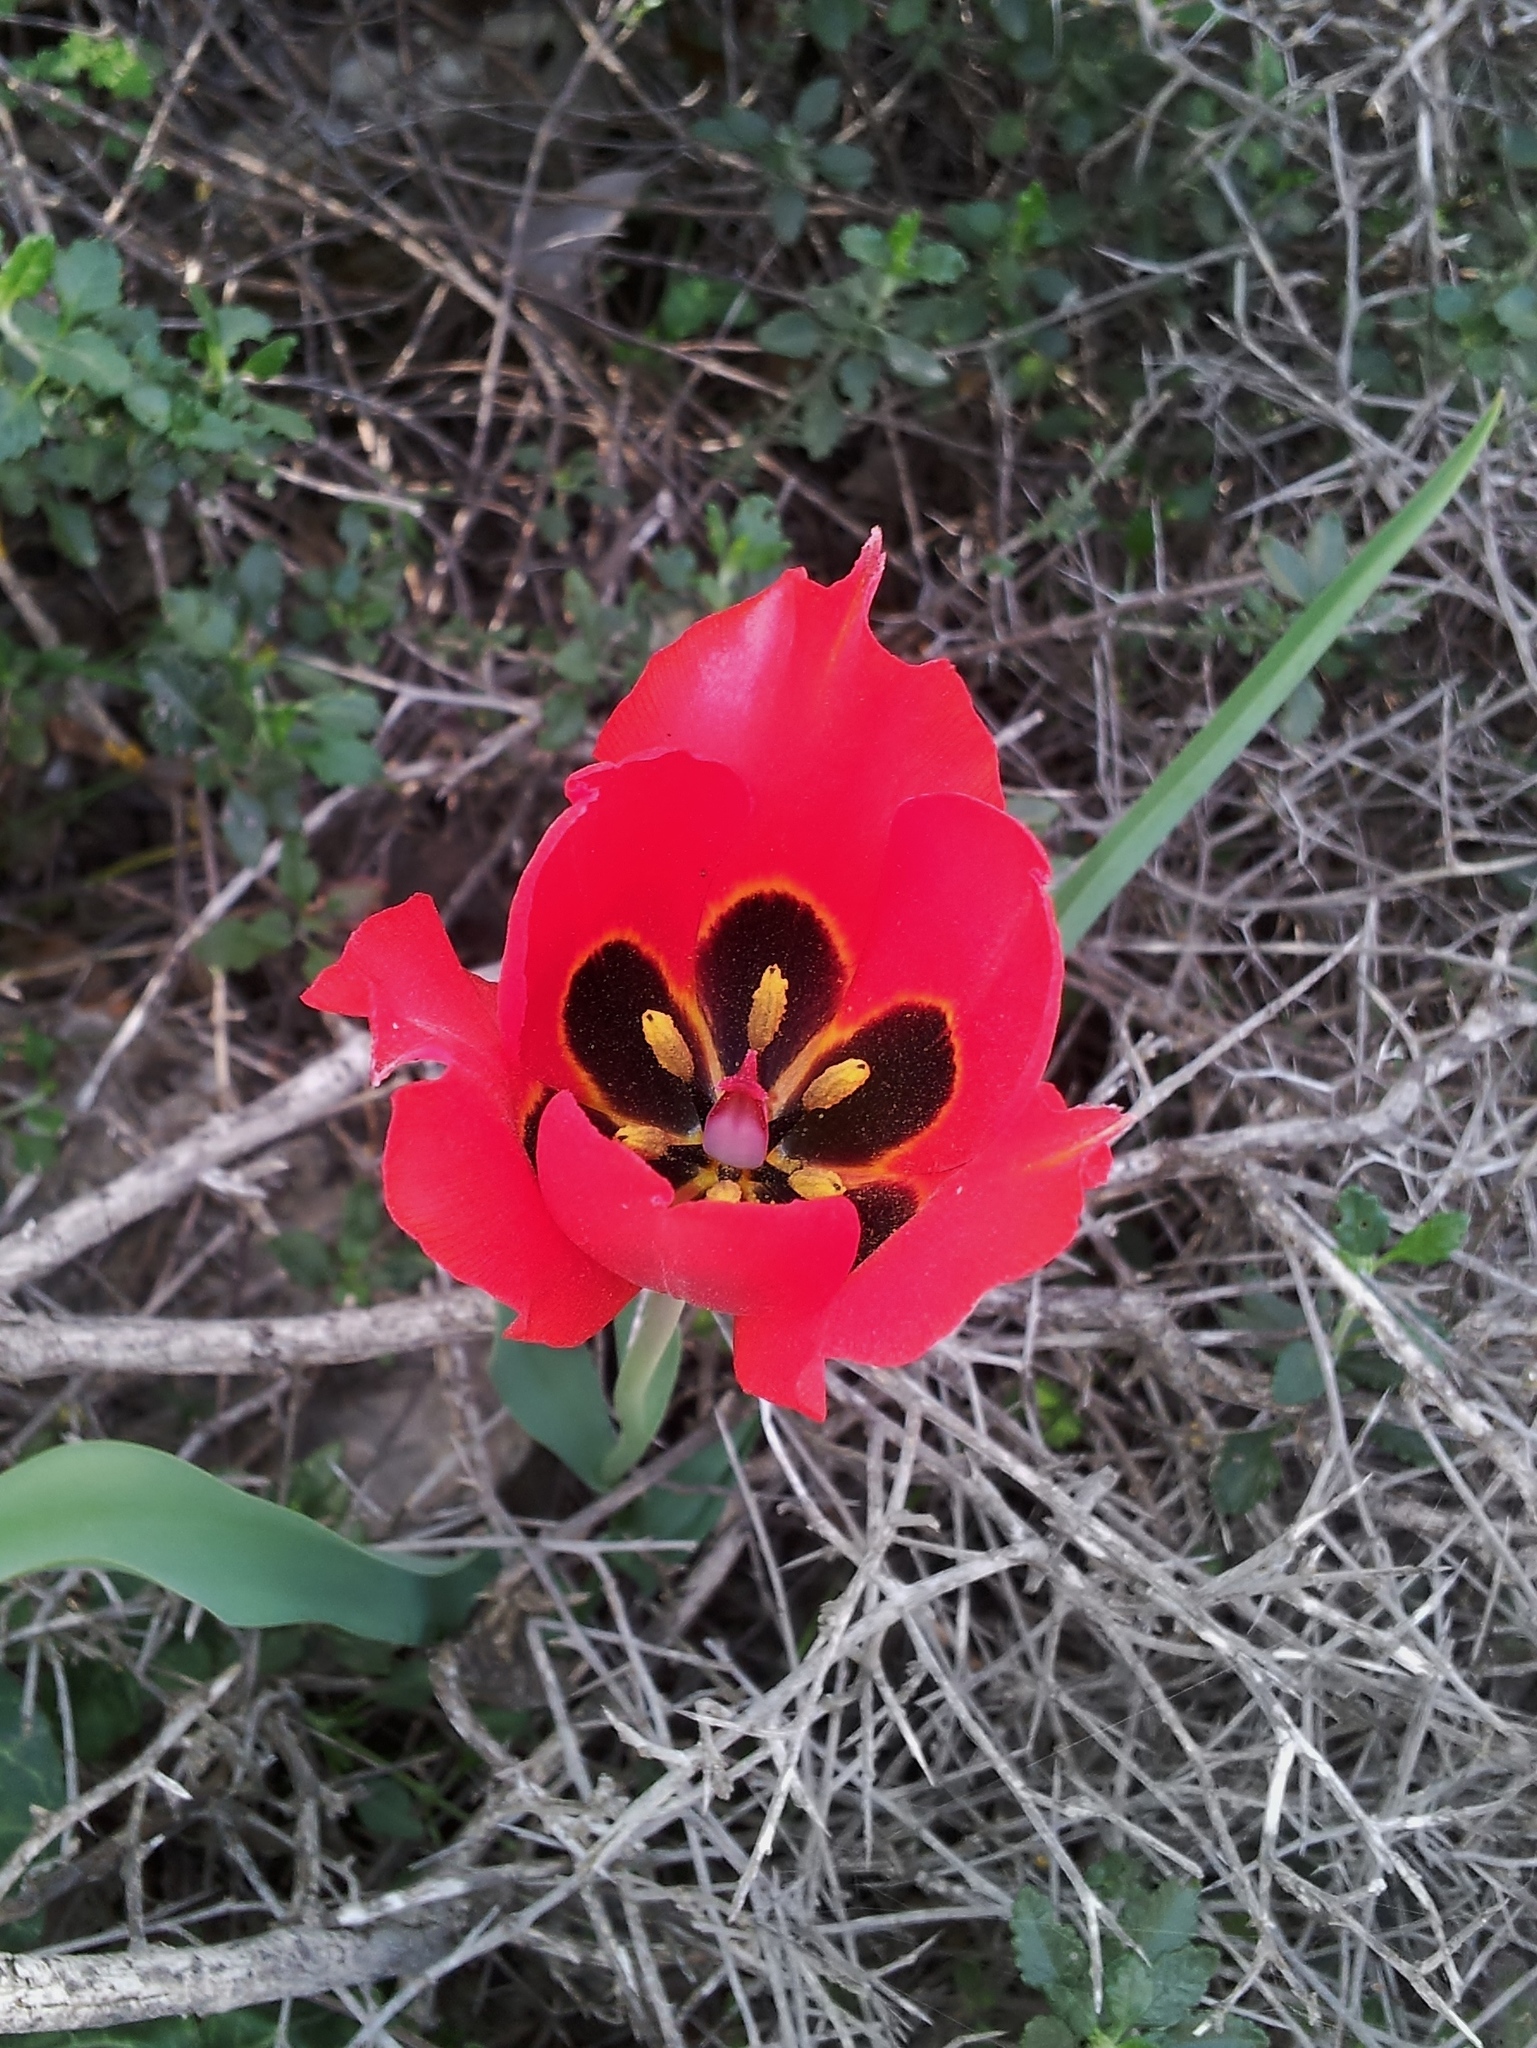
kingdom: Plantae
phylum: Tracheophyta
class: Liliopsida
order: Liliales
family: Liliaceae
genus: Tulipa
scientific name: Tulipa agenensis
